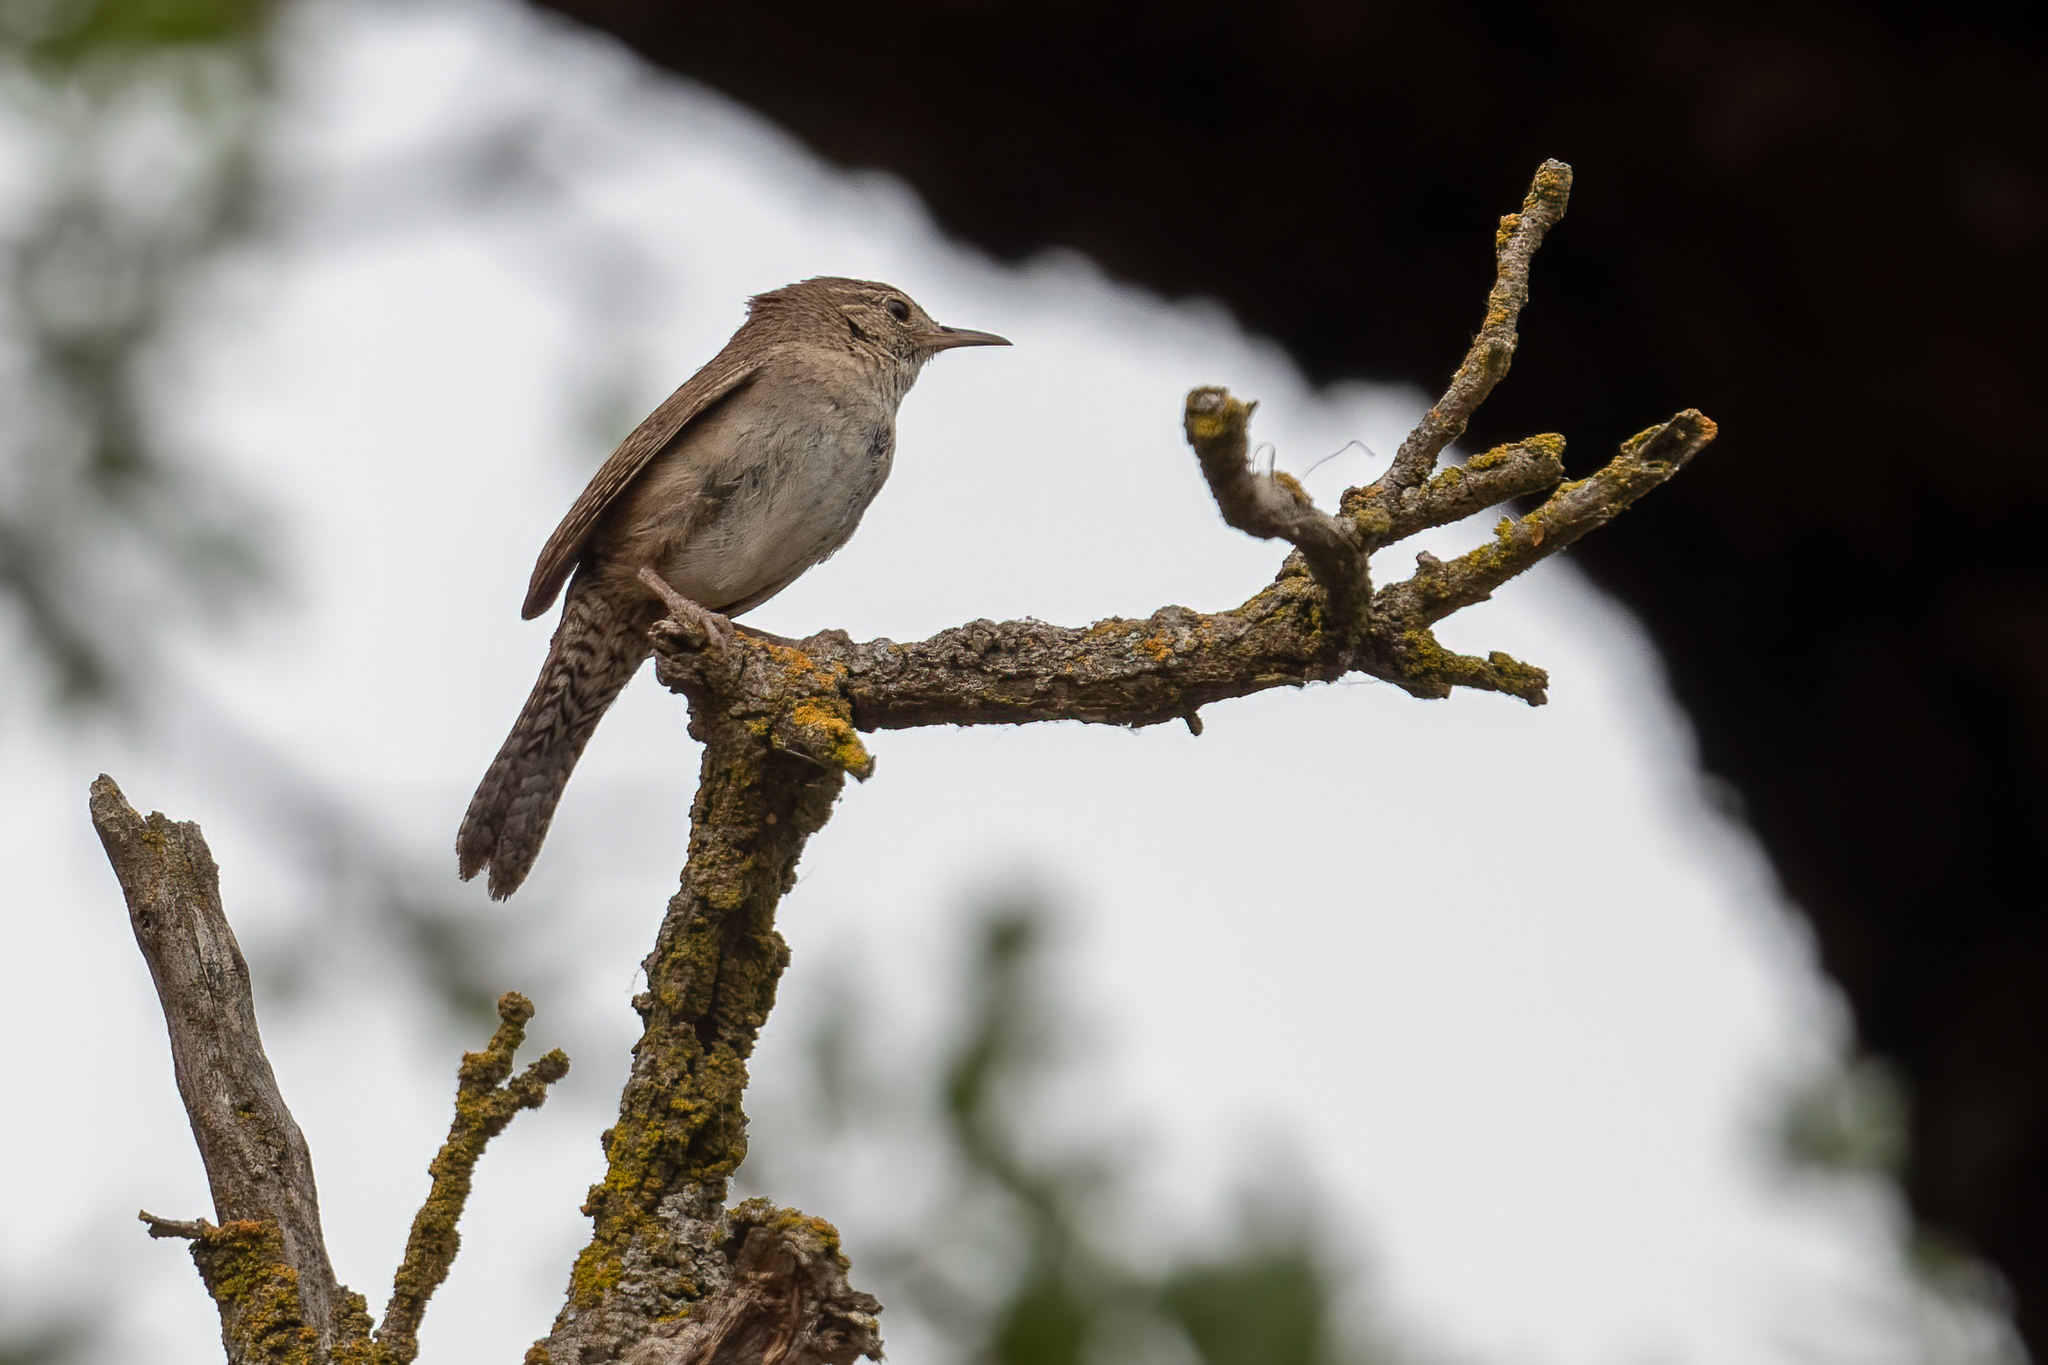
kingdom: Animalia
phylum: Chordata
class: Aves
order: Passeriformes
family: Troglodytidae
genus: Troglodytes
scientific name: Troglodytes aedon
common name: House wren
